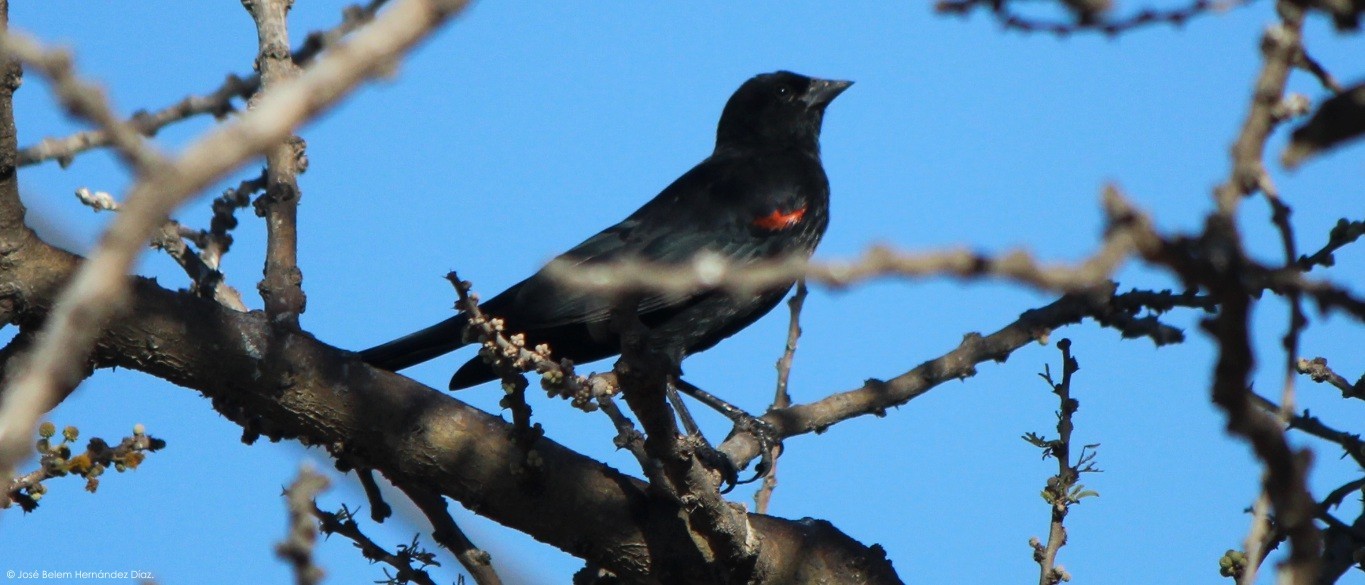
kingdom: Animalia
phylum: Chordata
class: Aves
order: Passeriformes
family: Icteridae
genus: Agelaius
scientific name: Agelaius phoeniceus
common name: Red-winged blackbird
